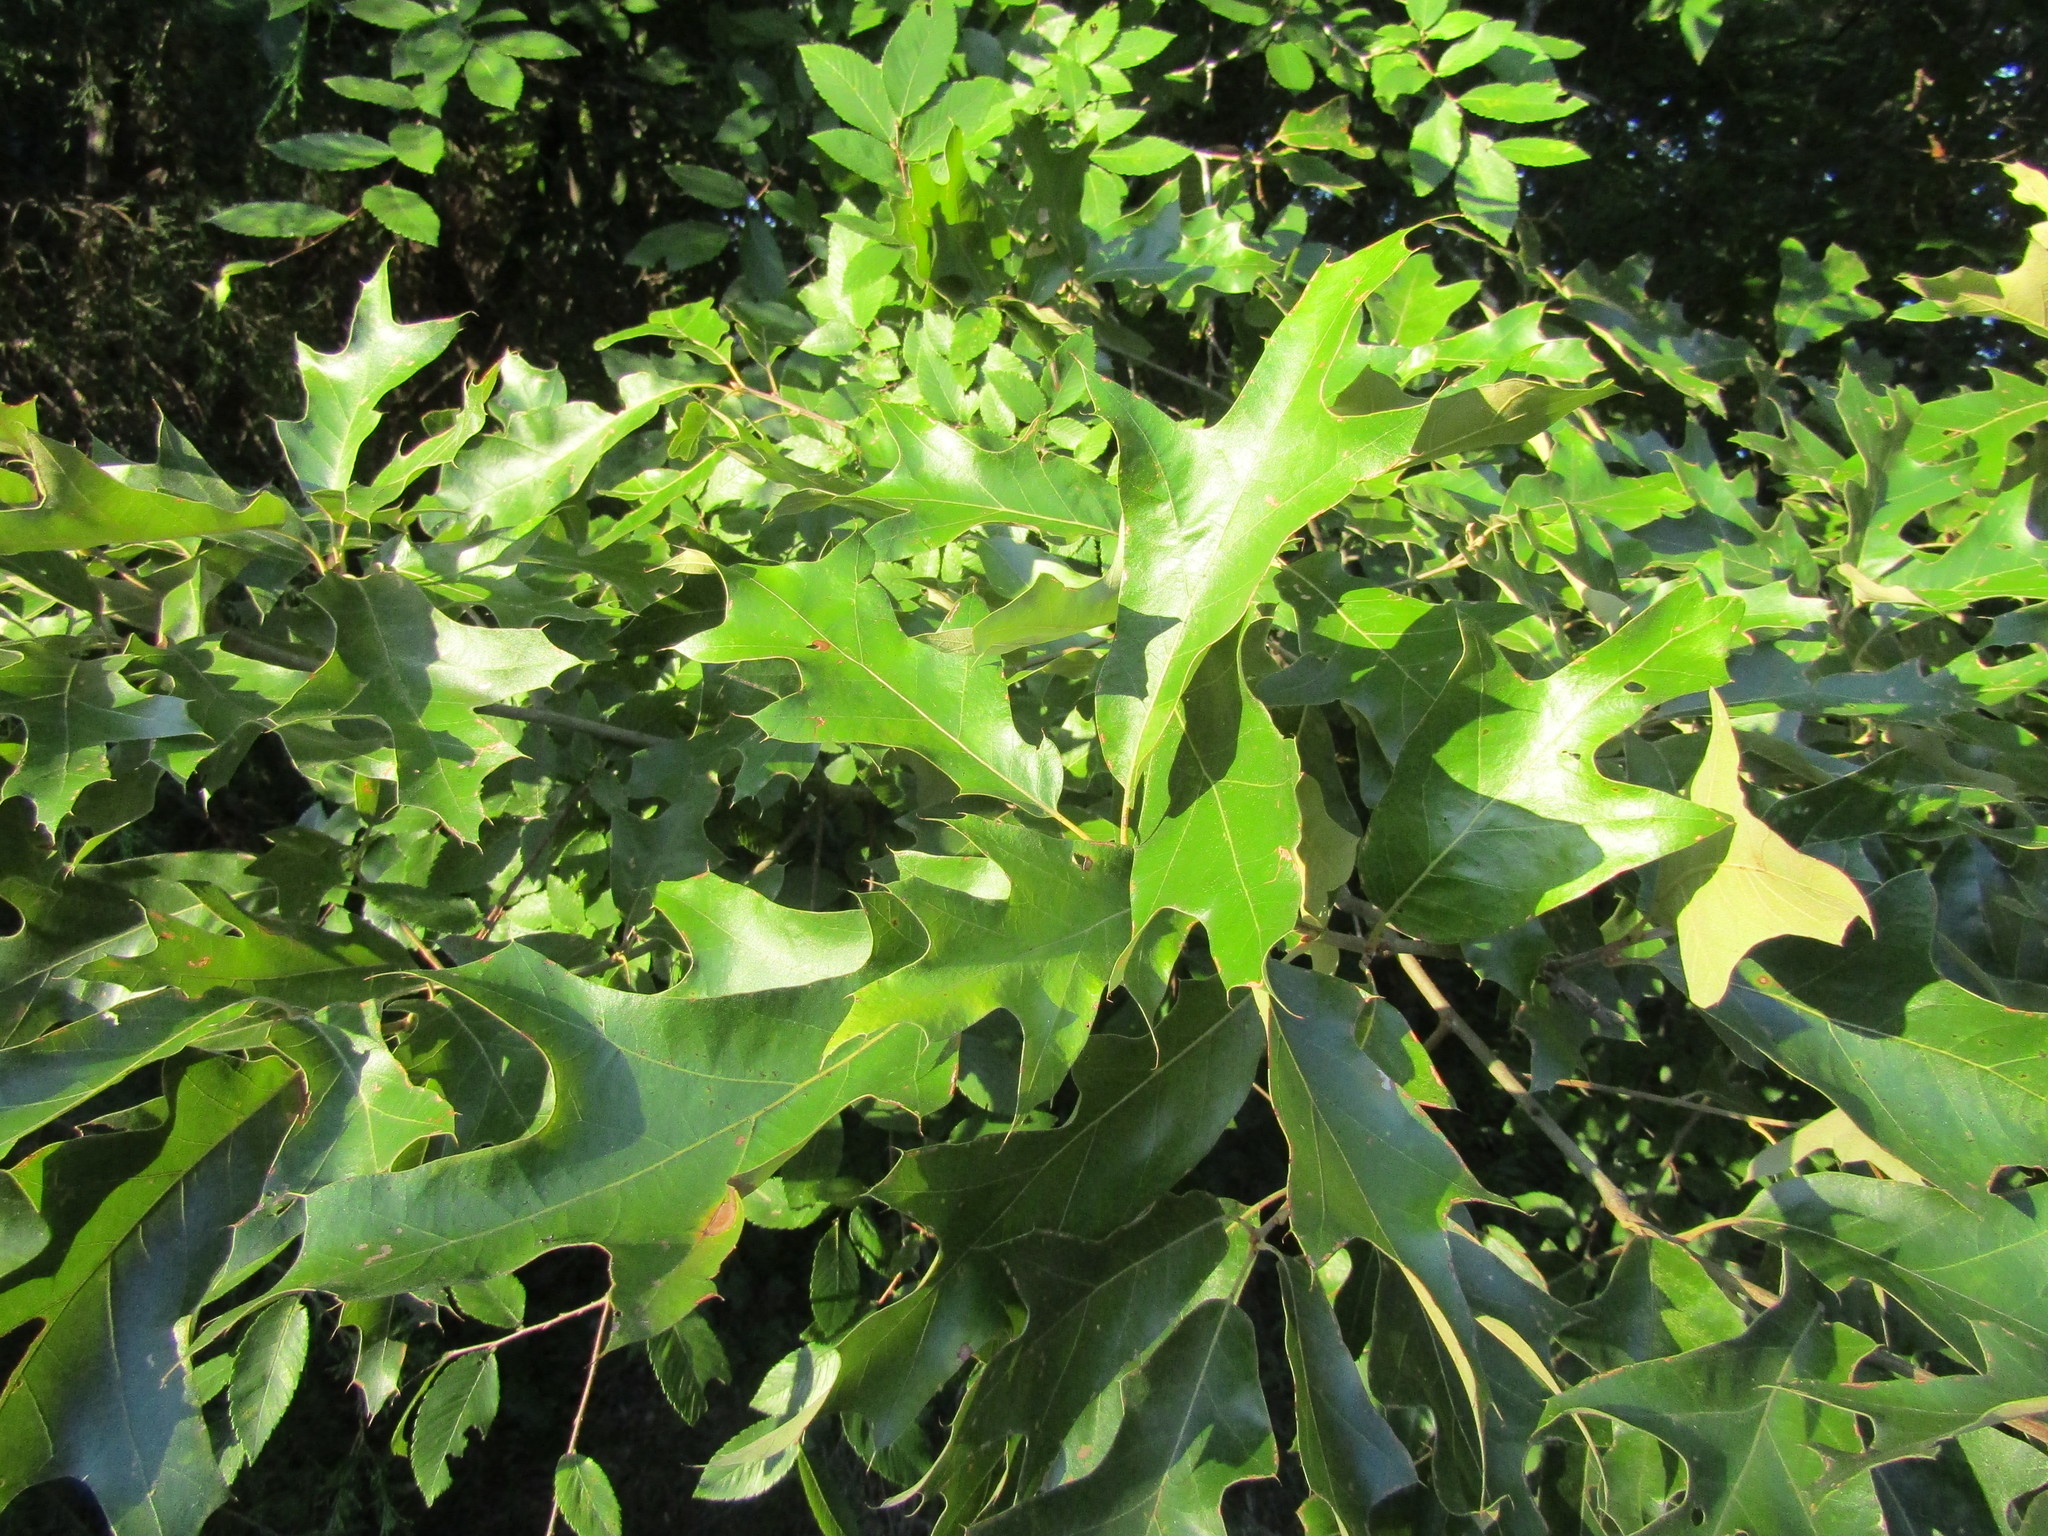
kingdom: Plantae
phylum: Tracheophyta
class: Magnoliopsida
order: Fagales
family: Fagaceae
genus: Quercus
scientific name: Quercus falcata
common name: Southern red oak
